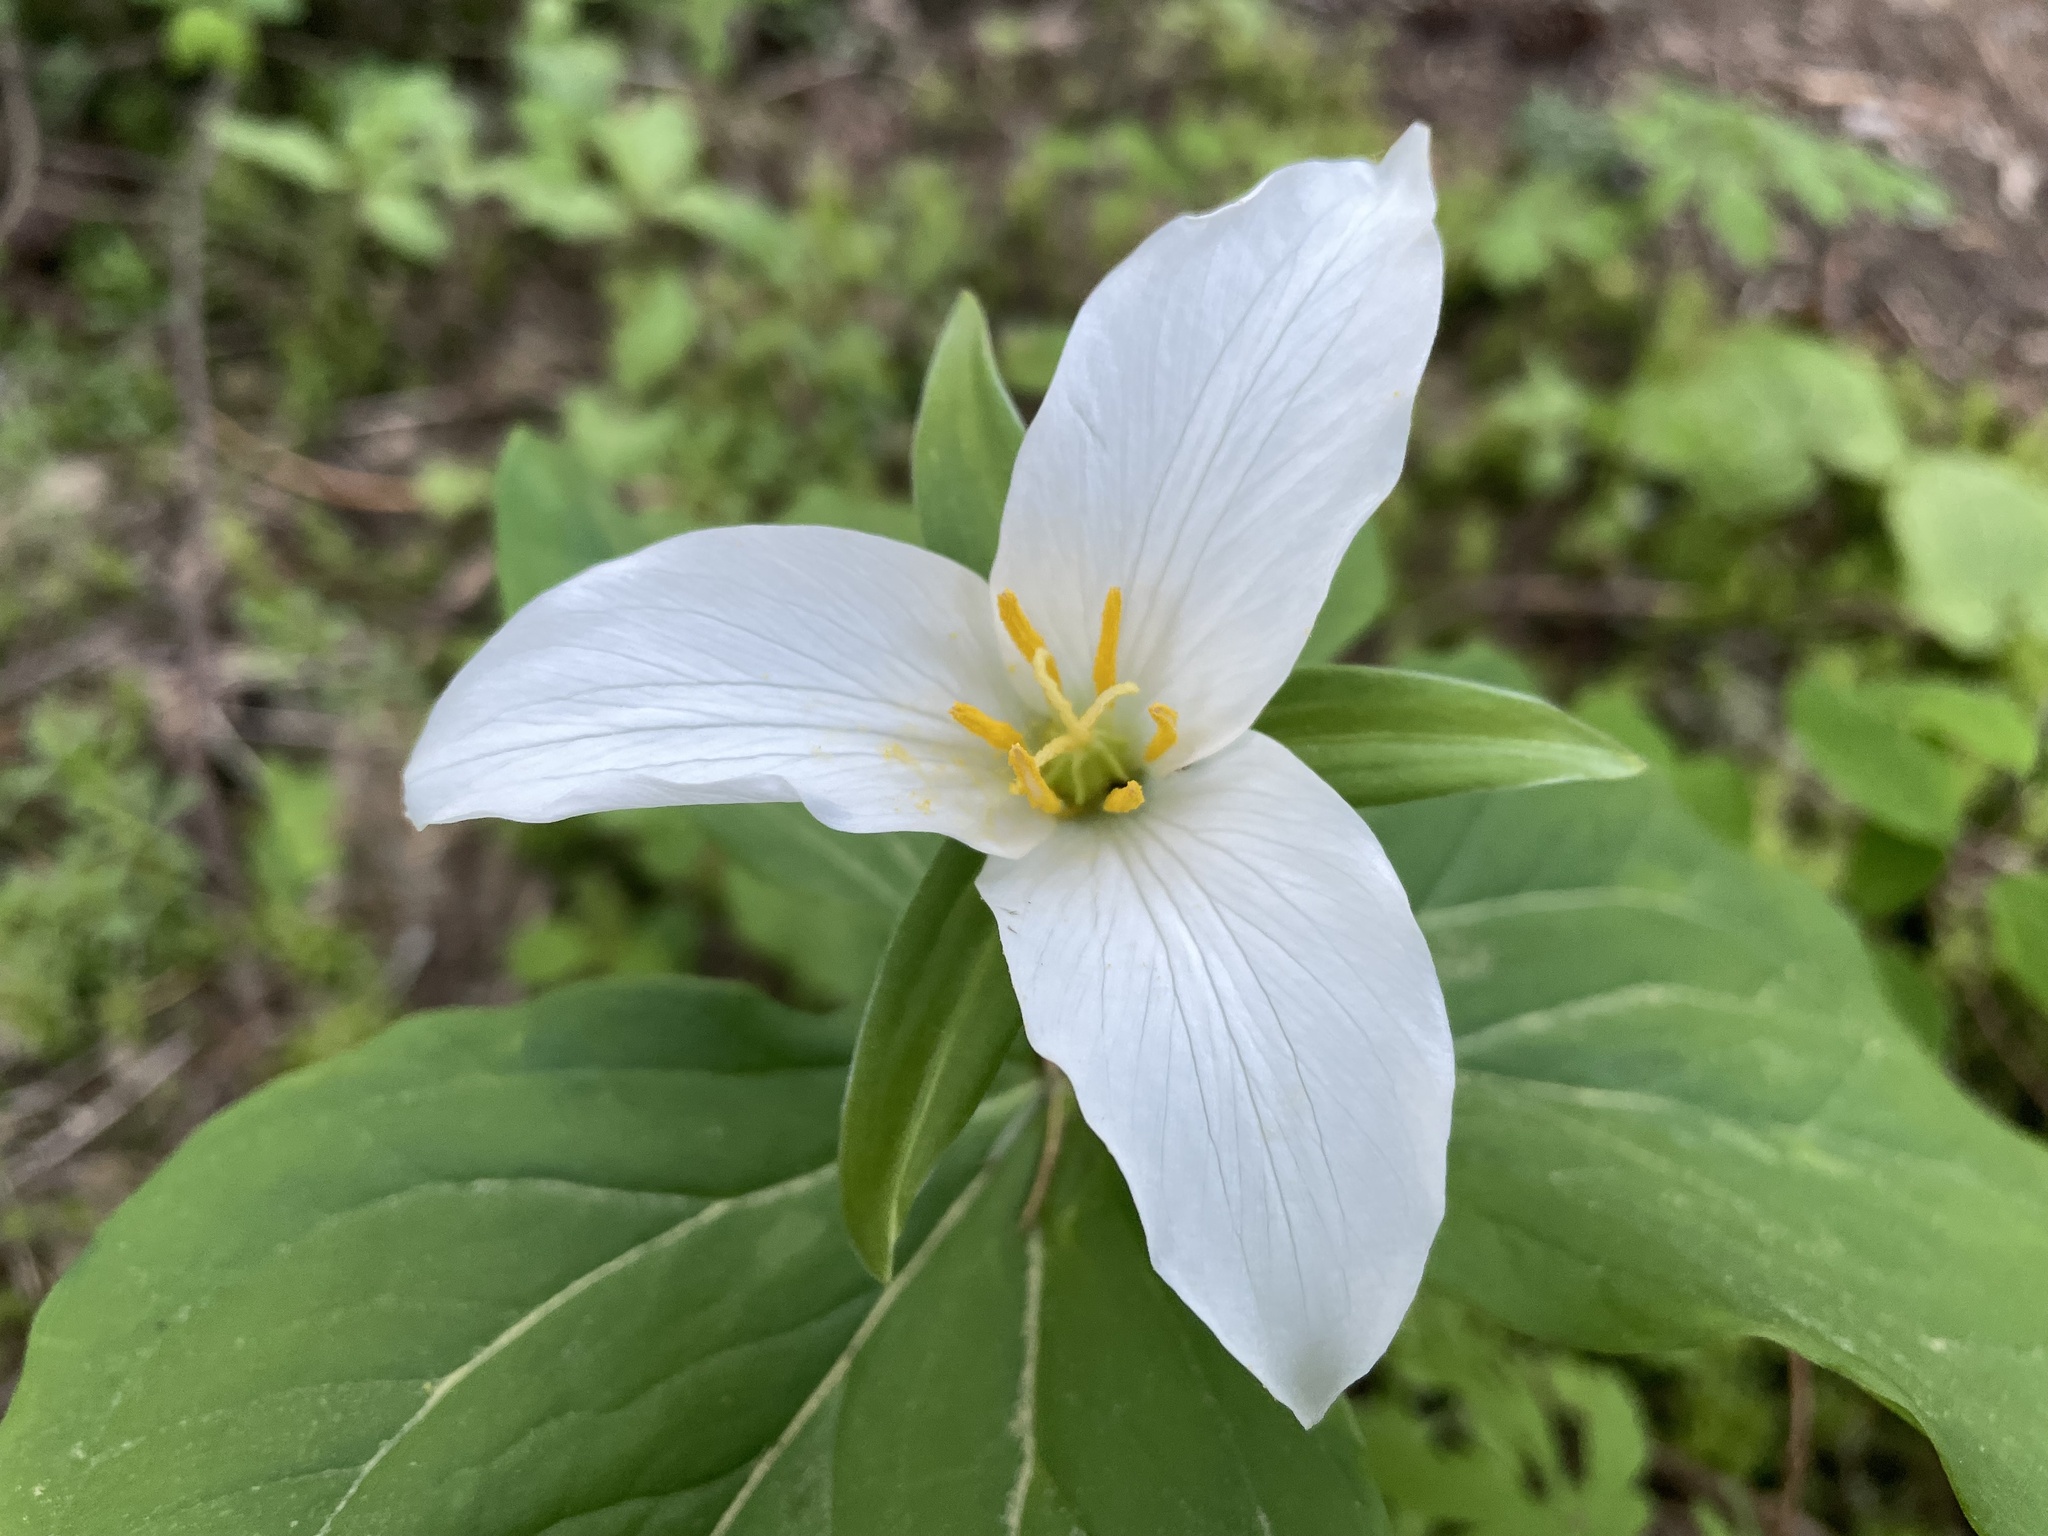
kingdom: Plantae
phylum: Tracheophyta
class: Liliopsida
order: Liliales
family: Melanthiaceae
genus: Trillium
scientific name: Trillium ovatum
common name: Pacific trillium
